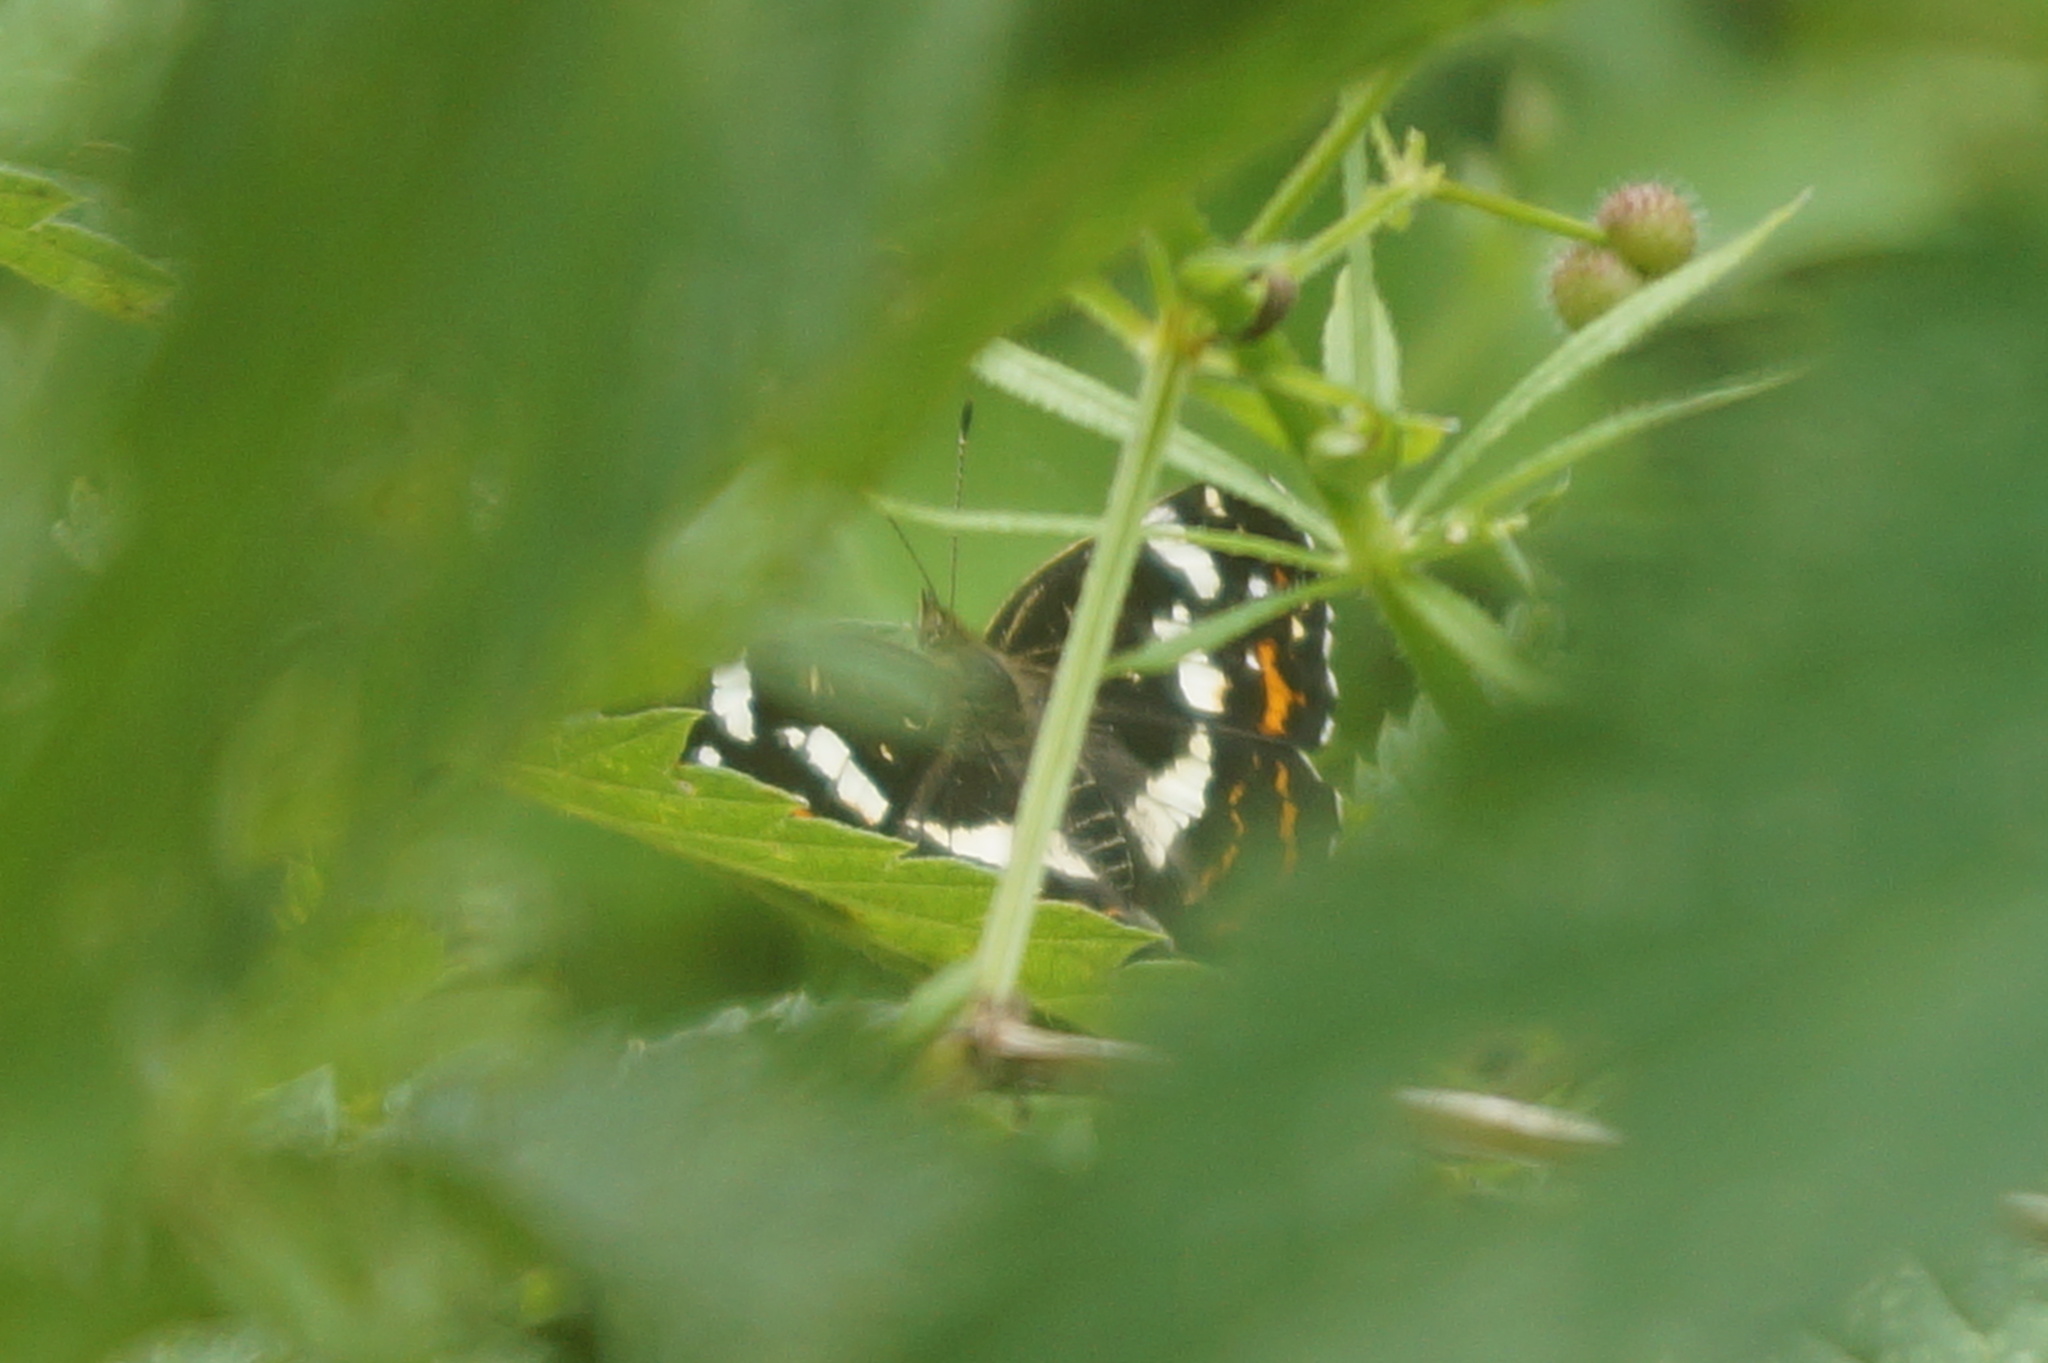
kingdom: Animalia
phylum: Arthropoda
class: Insecta
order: Lepidoptera
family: Nymphalidae
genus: Araschnia
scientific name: Araschnia levana
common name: Map butterfly
